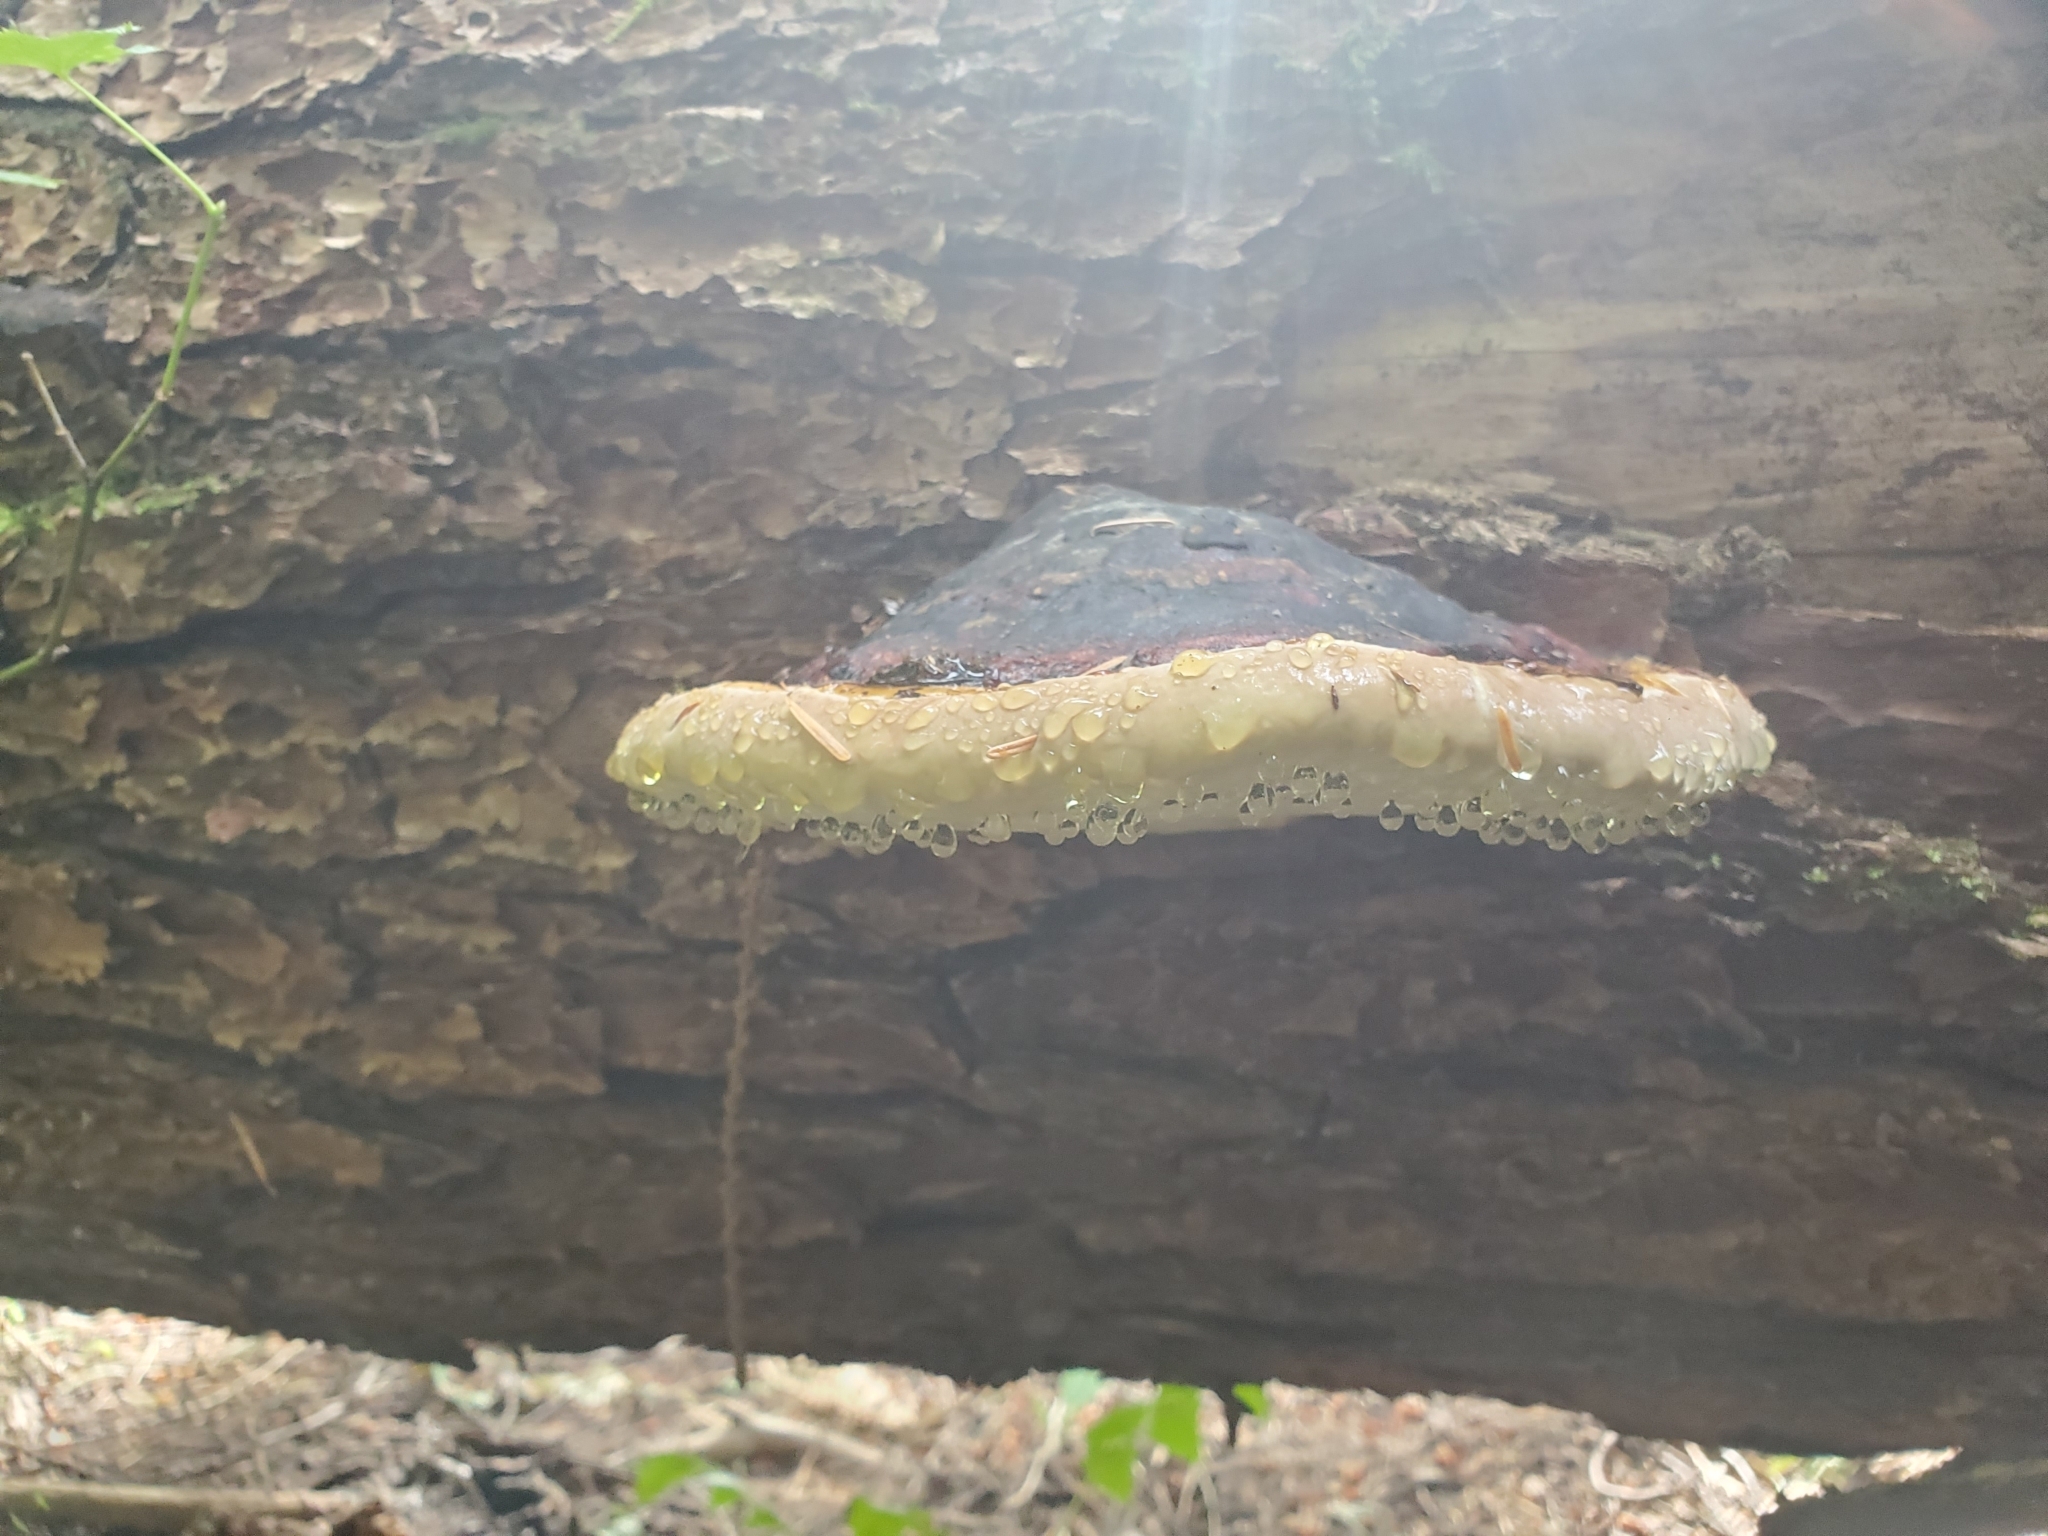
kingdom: Fungi
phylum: Basidiomycota
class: Agaricomycetes
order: Polyporales
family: Fomitopsidaceae
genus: Fomitopsis
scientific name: Fomitopsis mounceae
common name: Northern red belt
